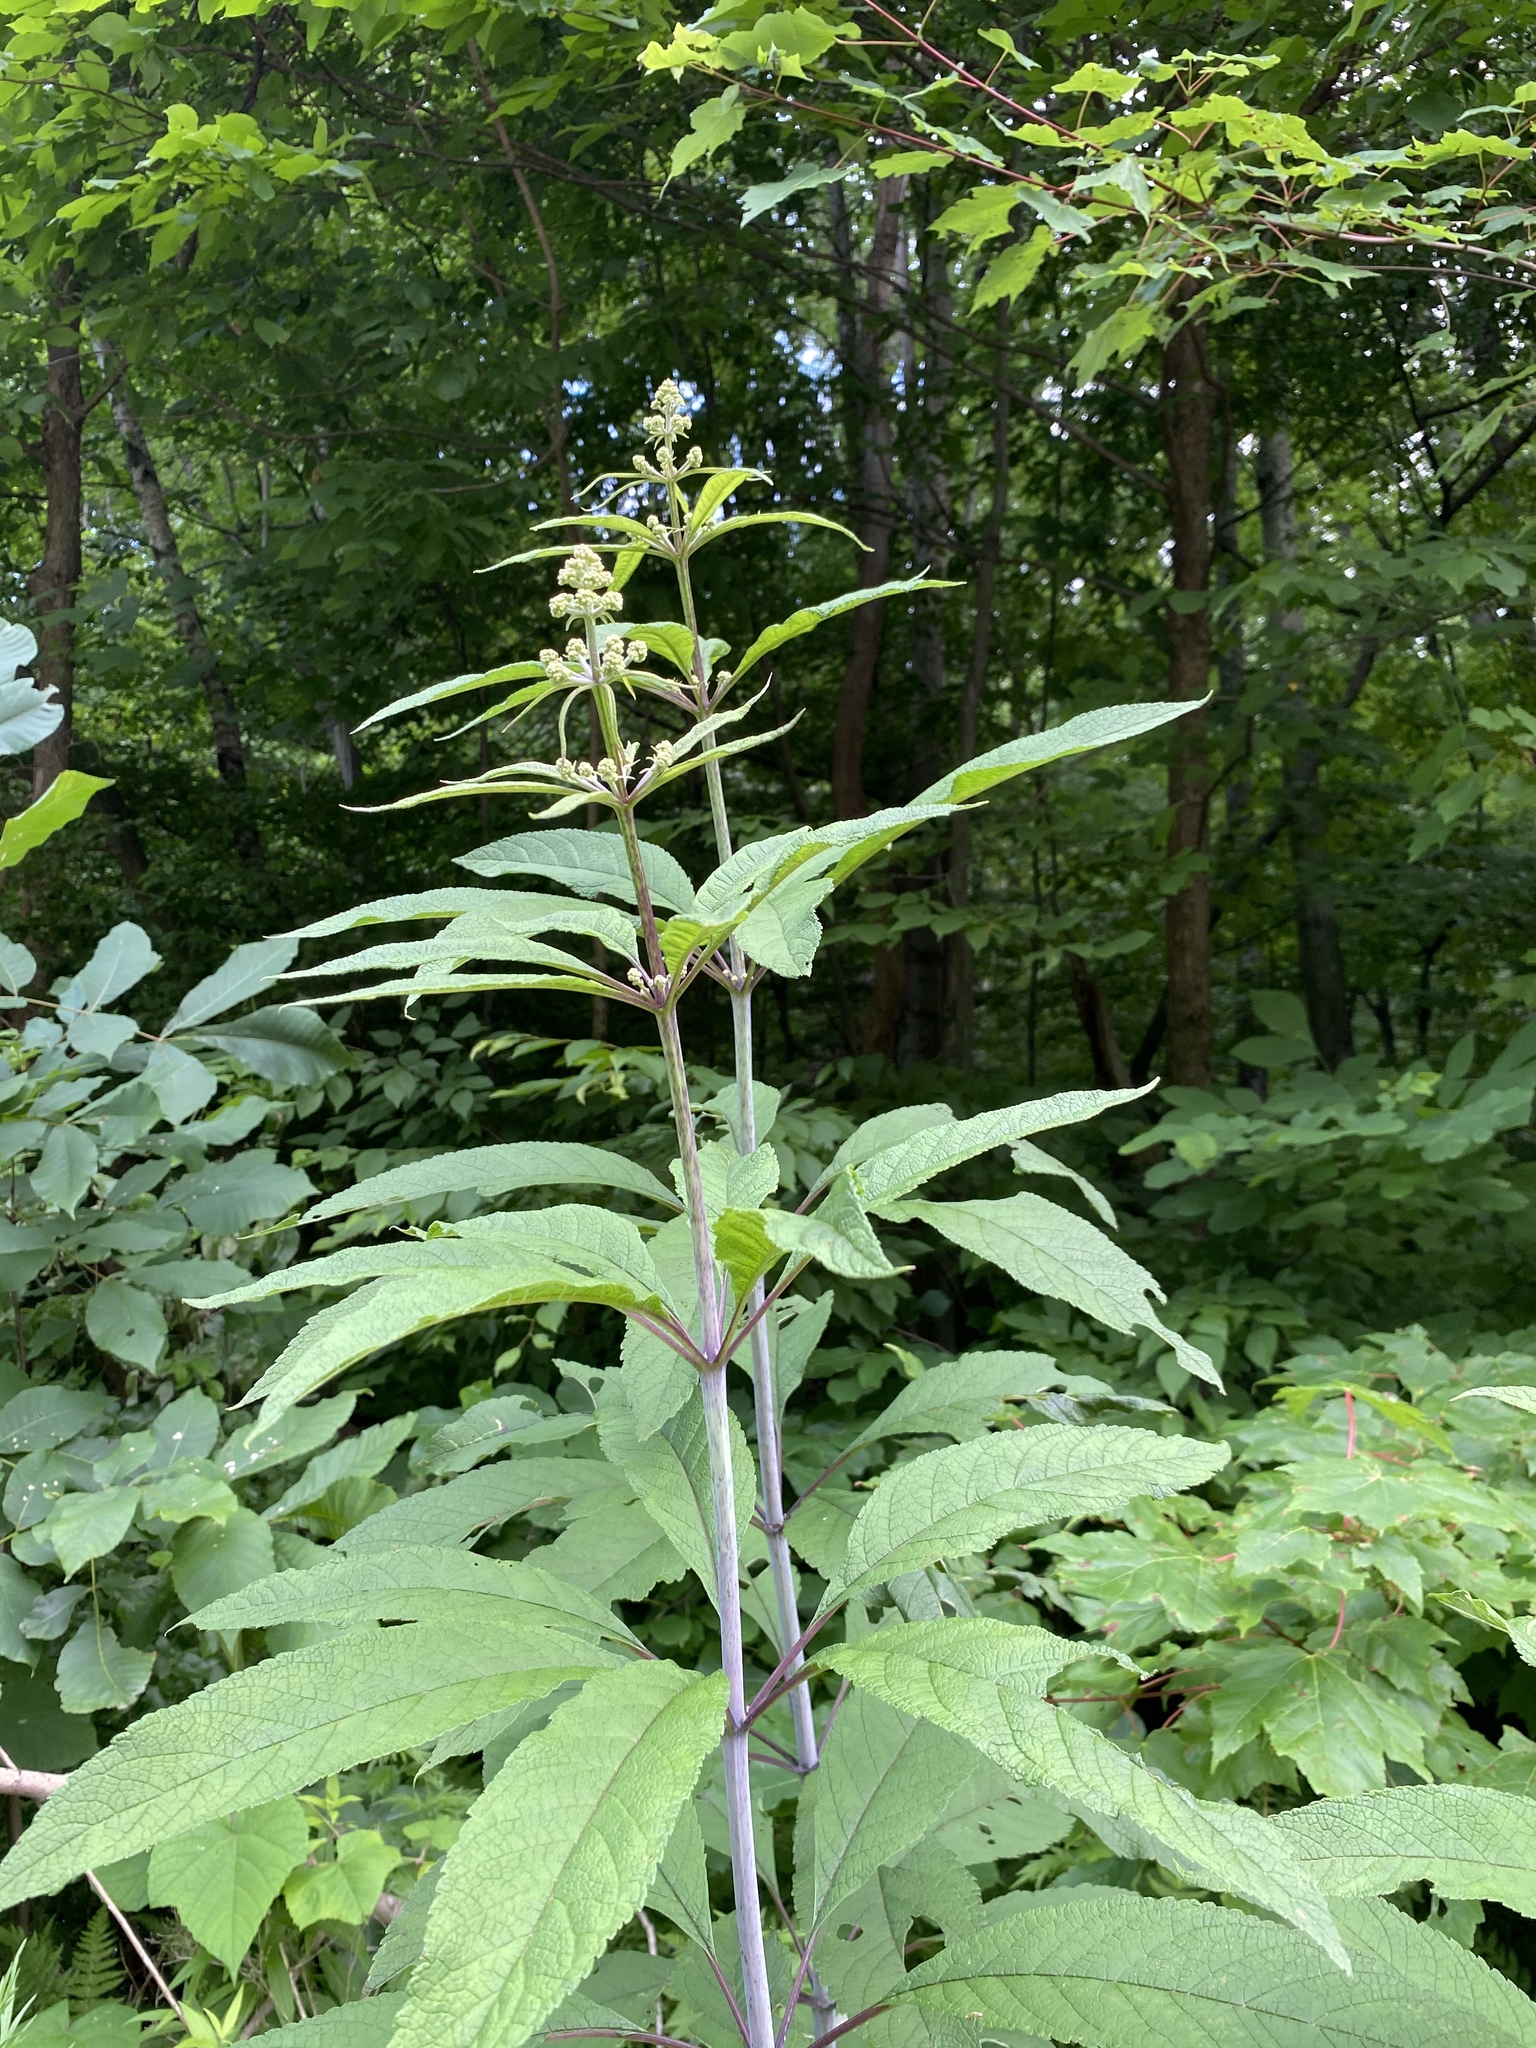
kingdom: Plantae
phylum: Tracheophyta
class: Magnoliopsida
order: Asterales
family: Asteraceae
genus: Eutrochium
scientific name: Eutrochium fistulosum
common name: Trumpetweed
